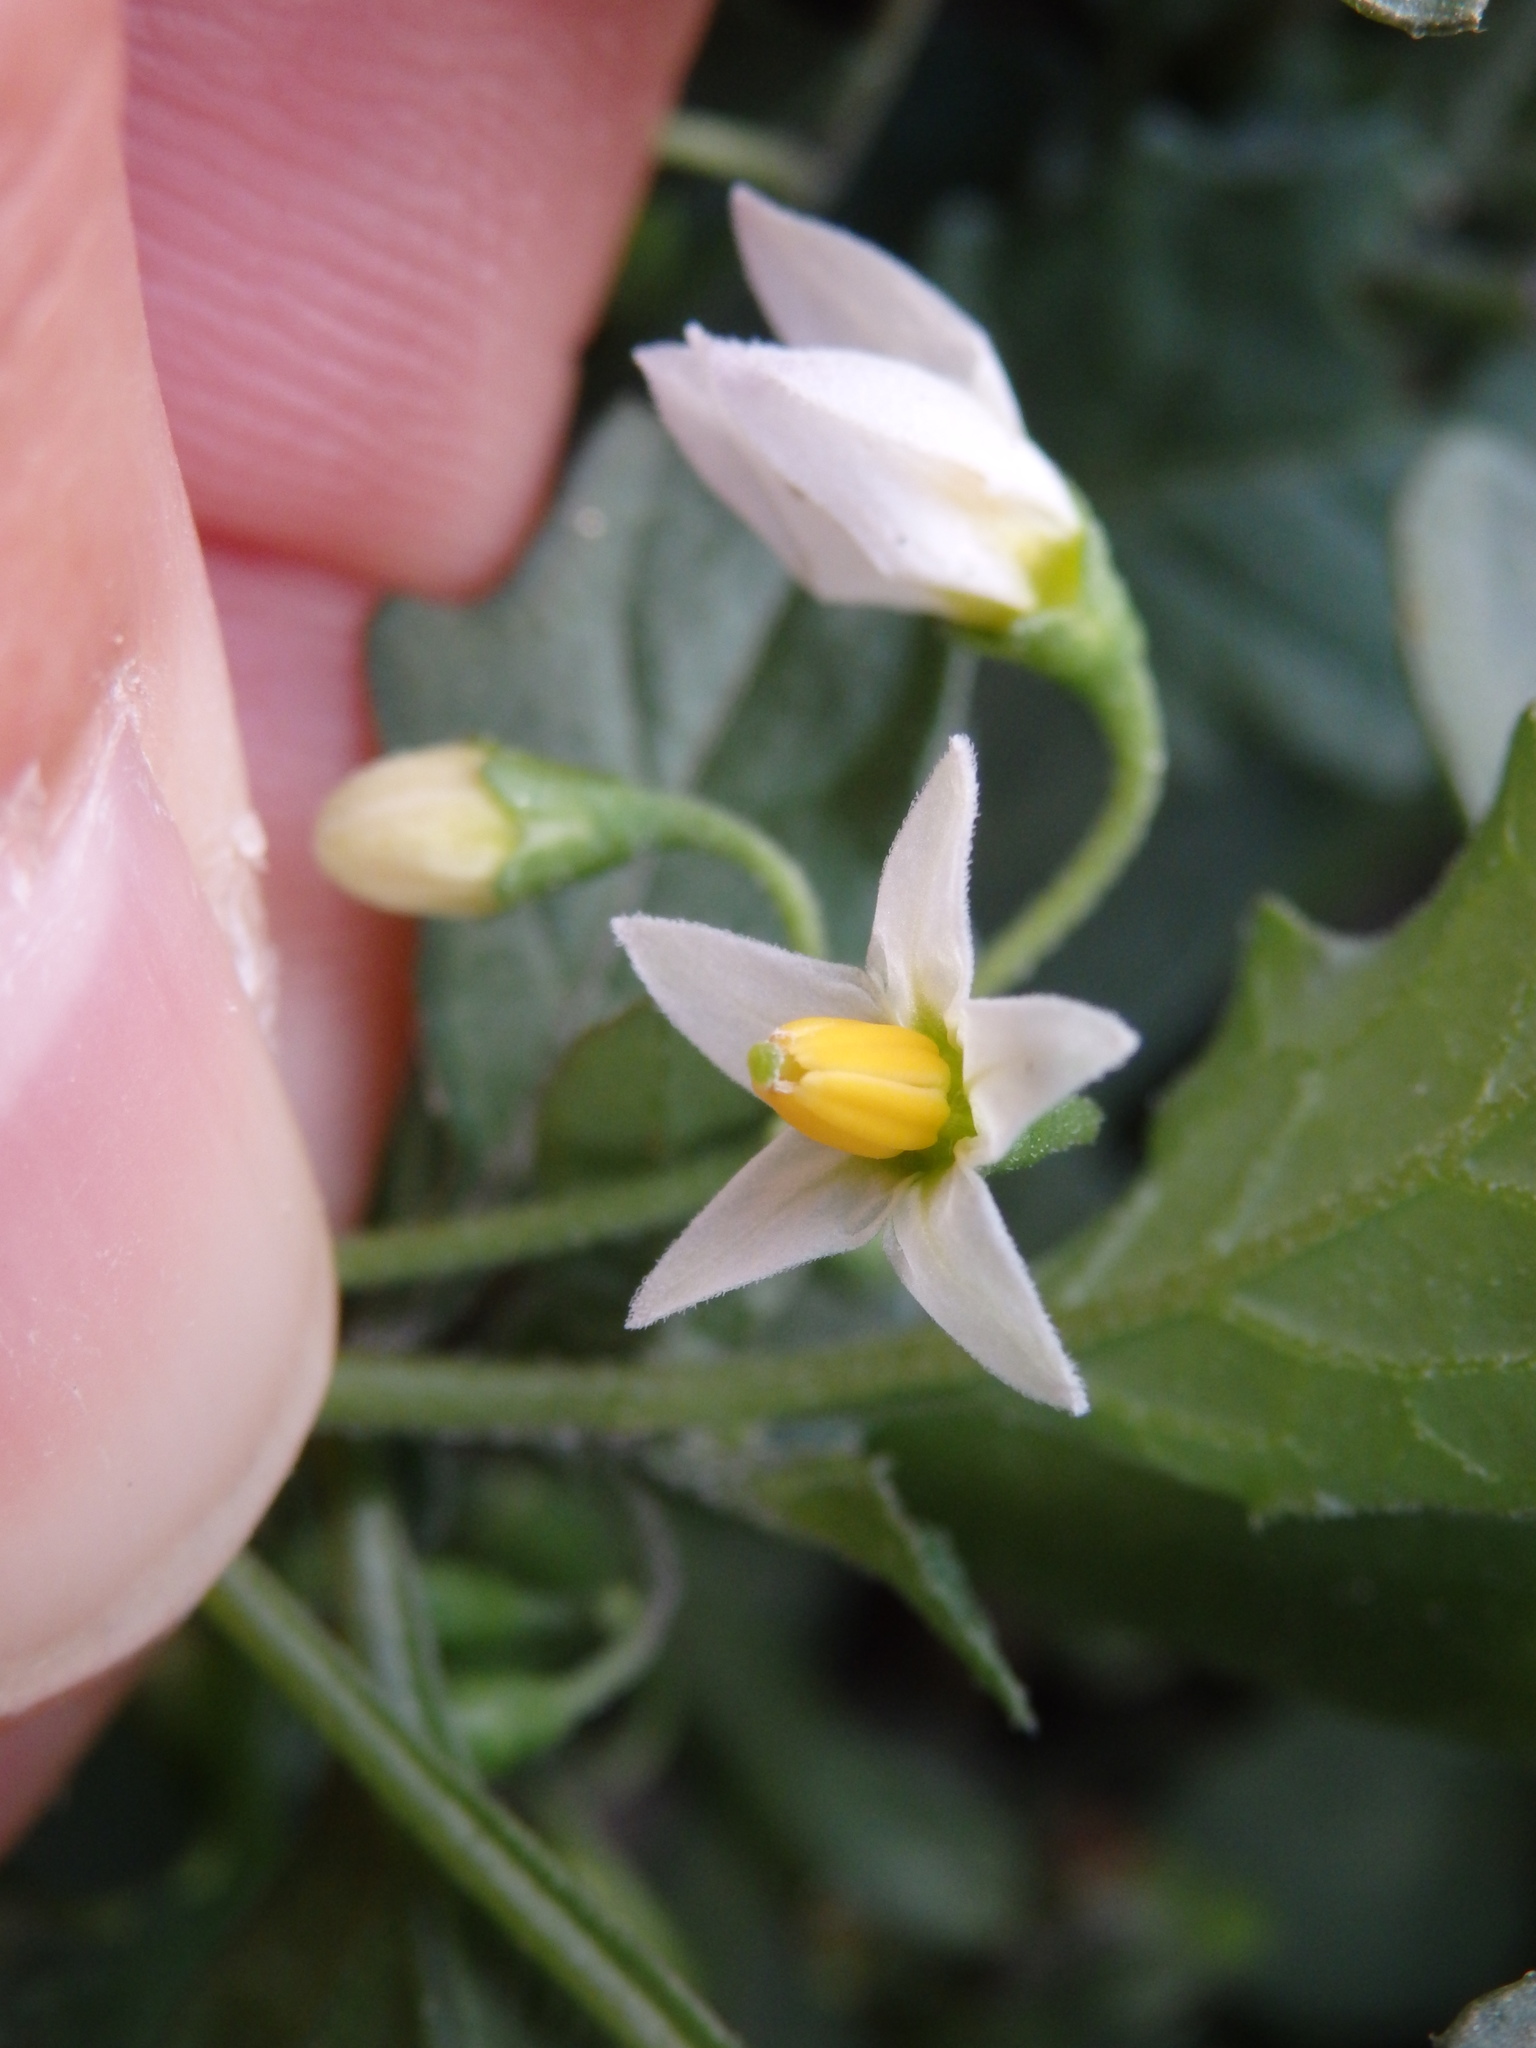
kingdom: Plantae
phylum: Tracheophyta
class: Magnoliopsida
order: Solanales
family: Solanaceae
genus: Solanum
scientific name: Solanum nigrum
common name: Black nightshade
